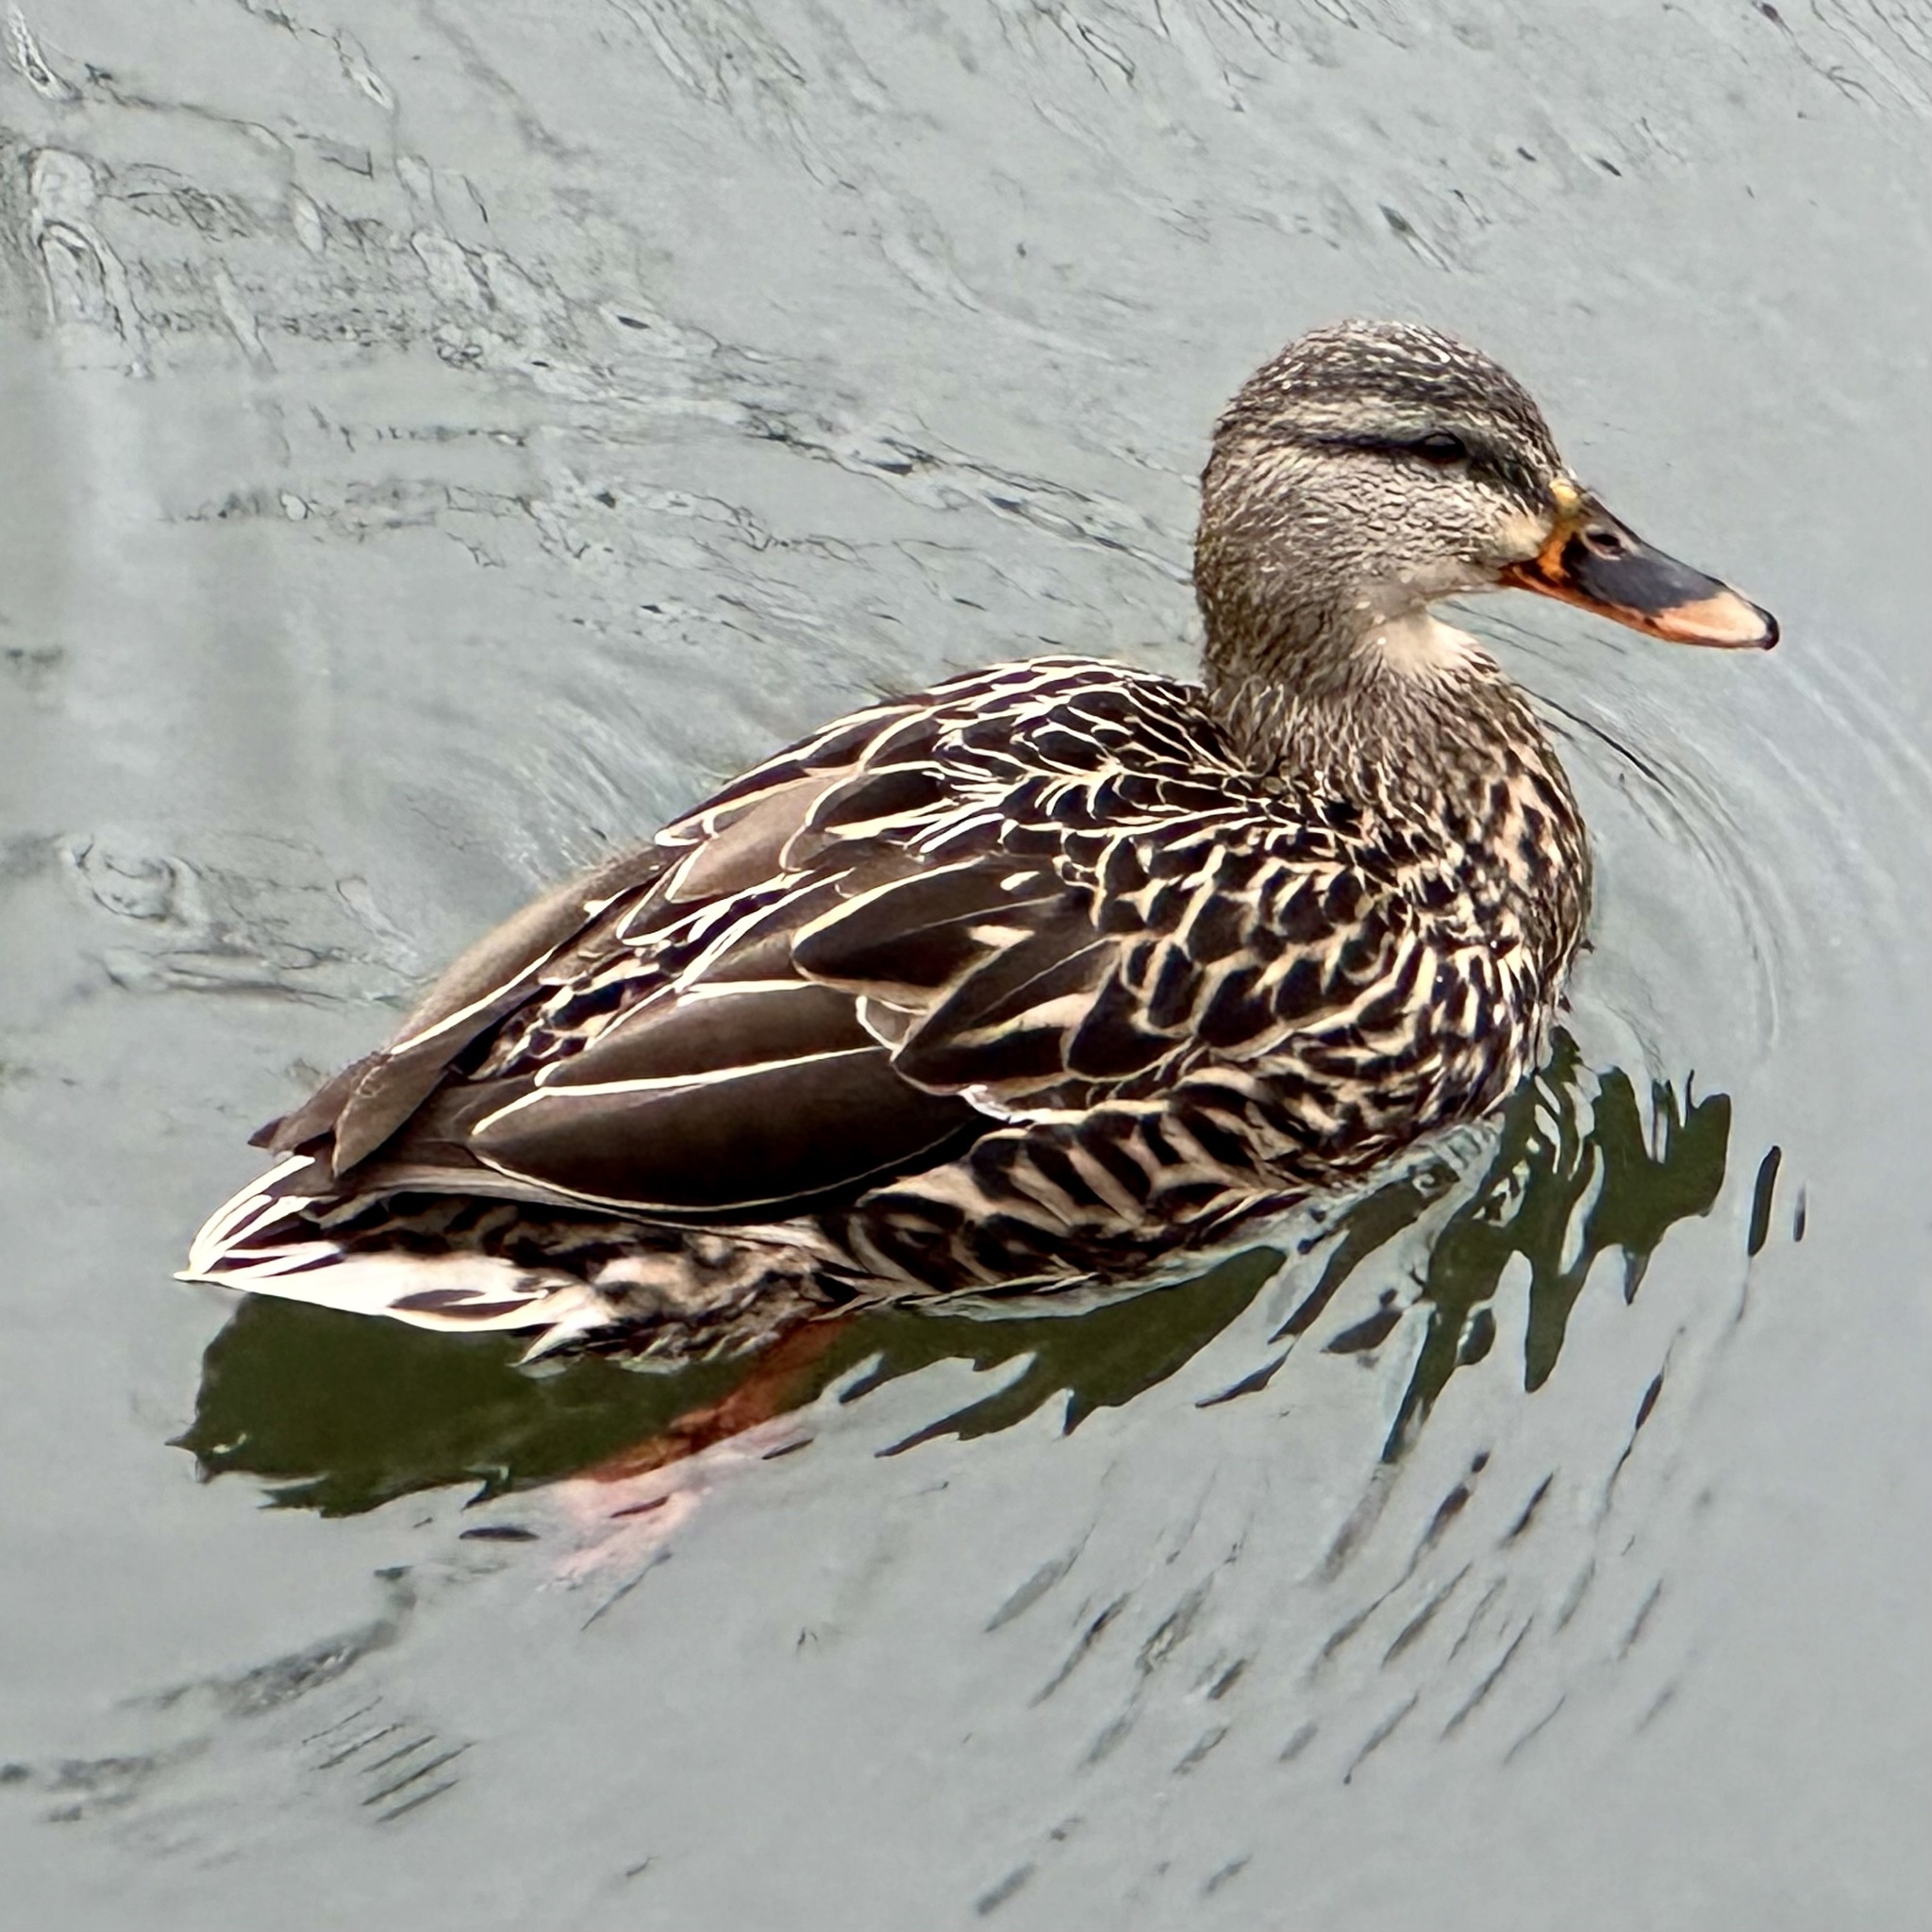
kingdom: Animalia
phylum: Chordata
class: Aves
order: Anseriformes
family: Anatidae
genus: Anas
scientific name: Anas platyrhynchos
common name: Mallard
